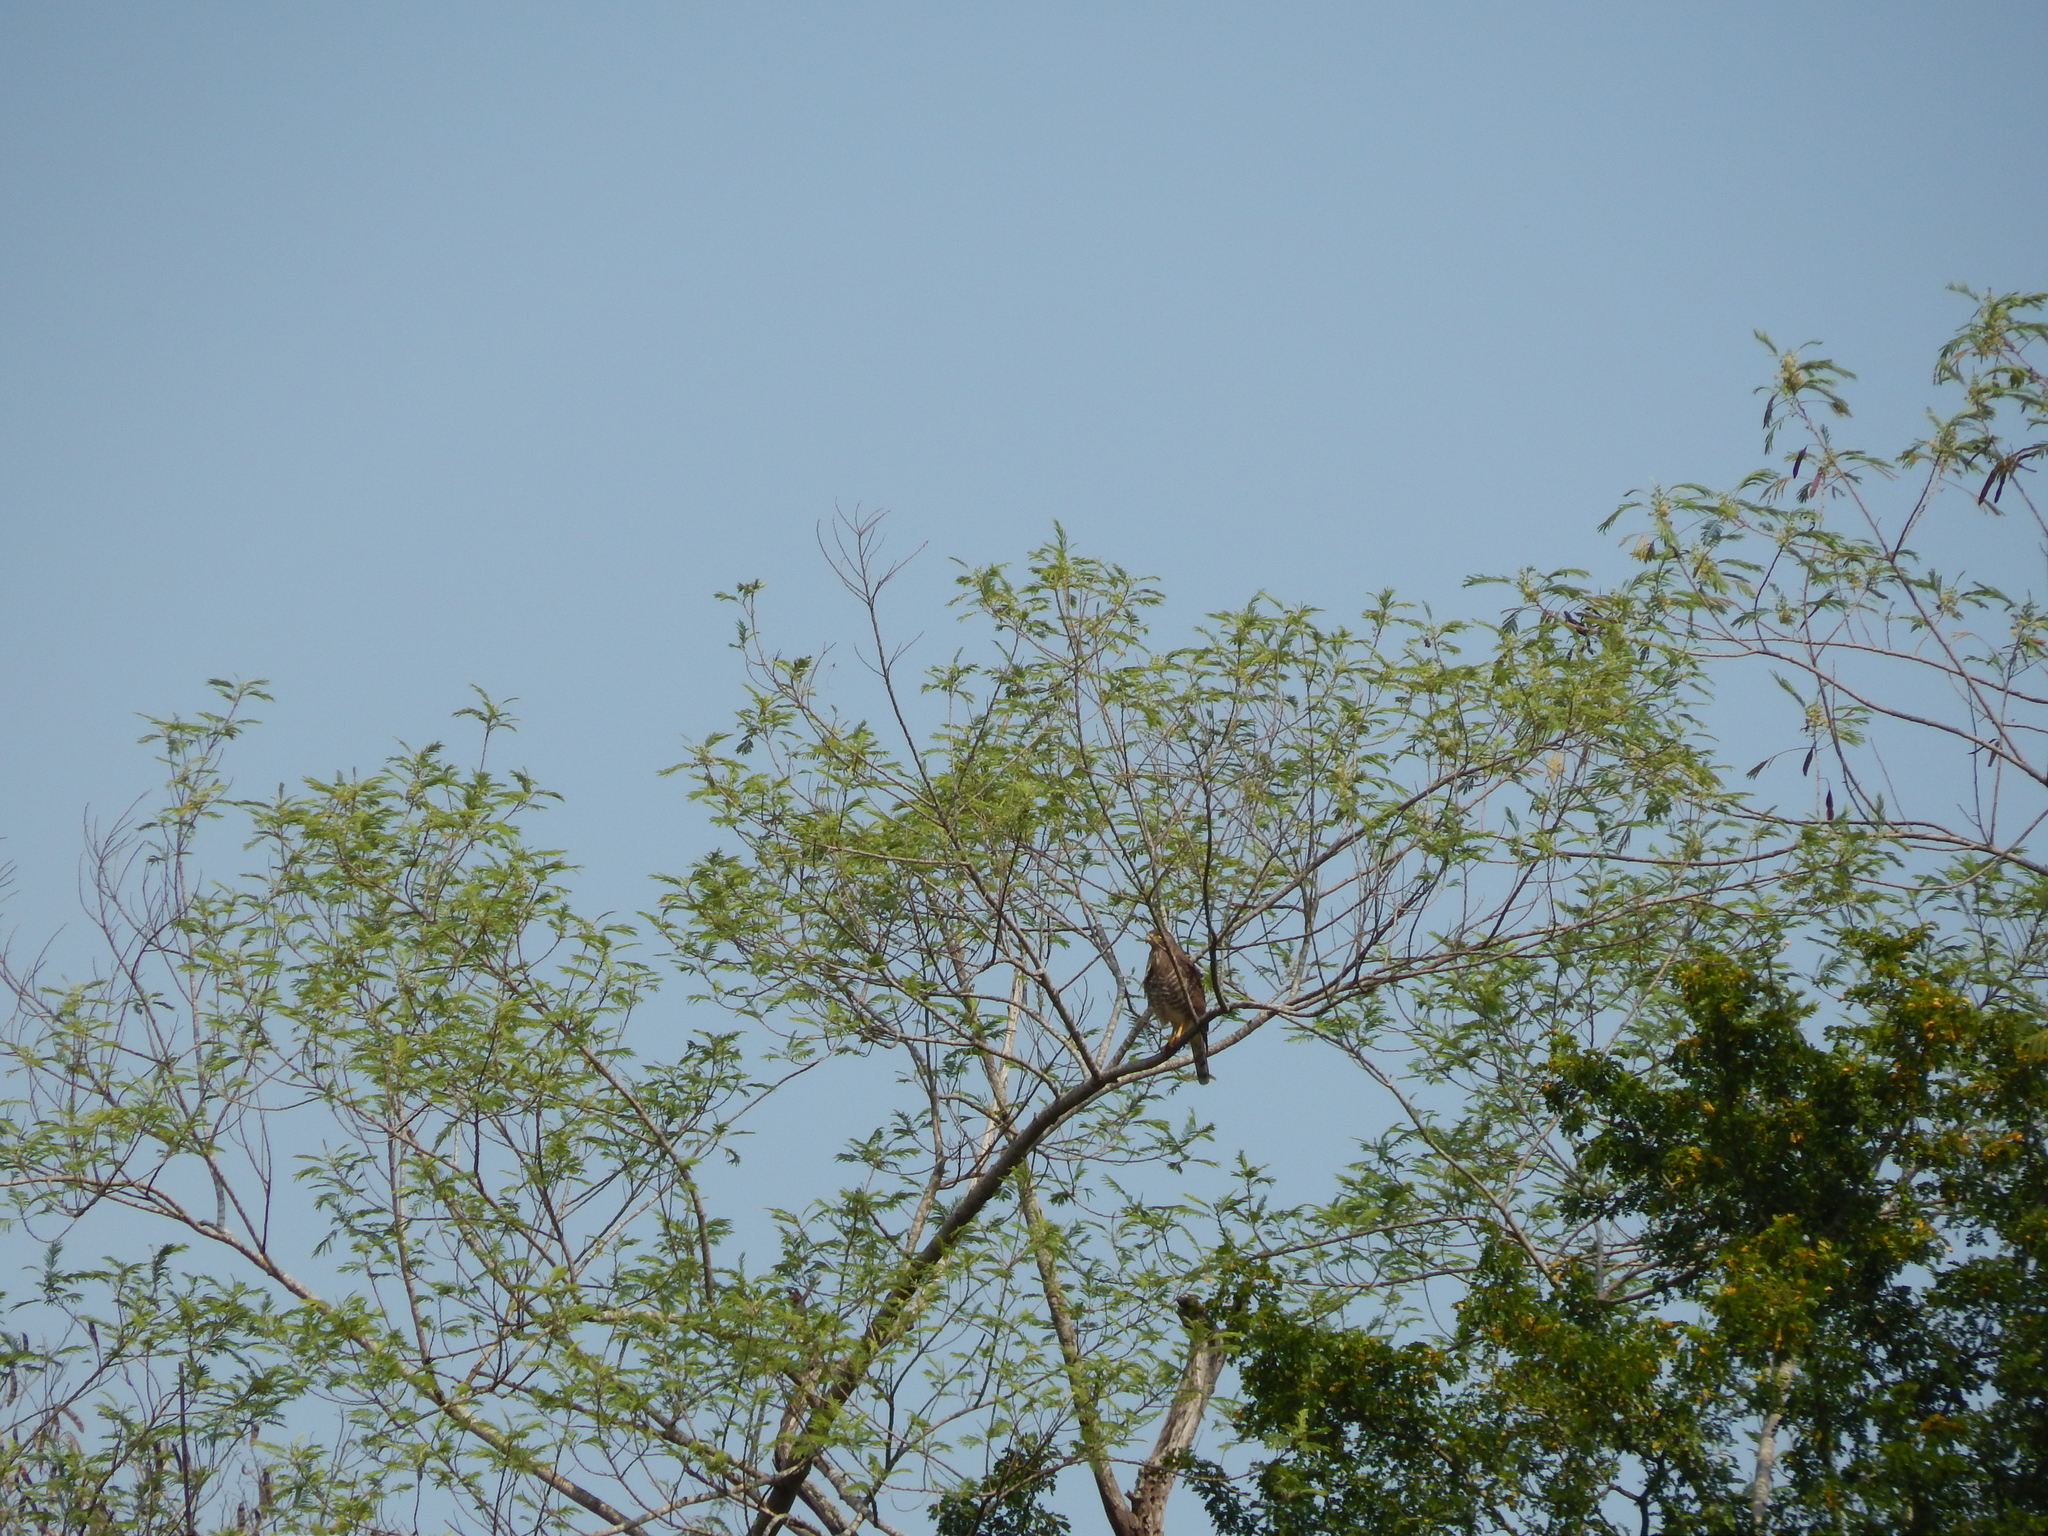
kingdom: Animalia
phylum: Chordata
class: Aves
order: Accipitriformes
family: Accipitridae
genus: Rupornis
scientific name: Rupornis magnirostris
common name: Roadside hawk
